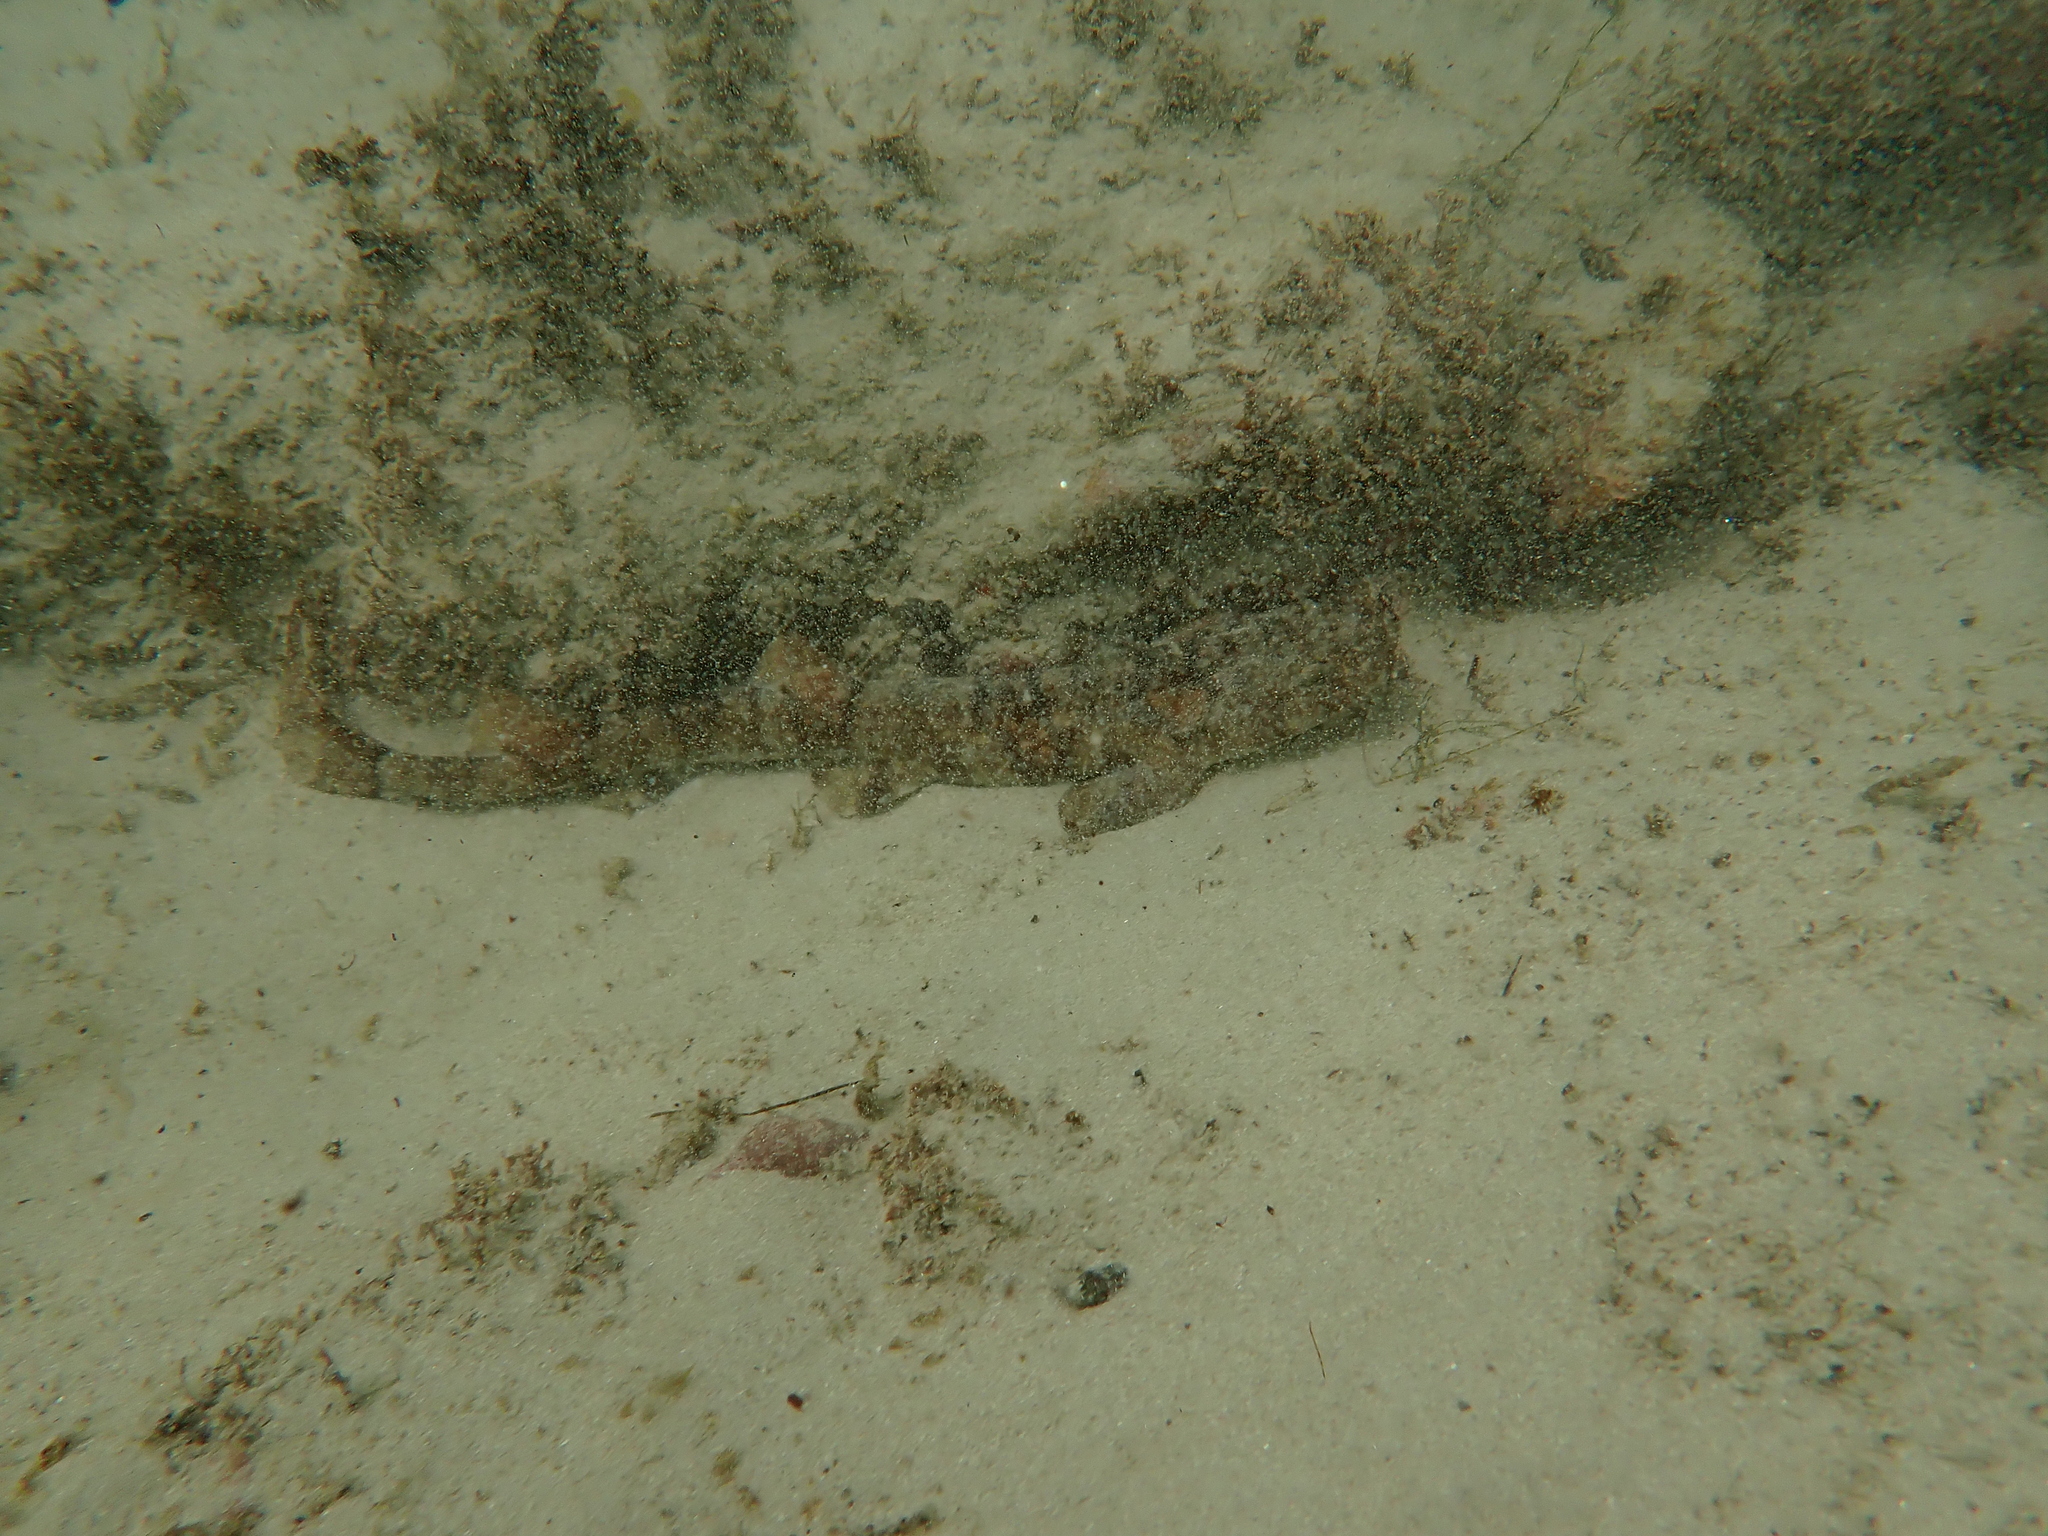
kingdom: Animalia
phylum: Chordata
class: Elasmobranchii
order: Carcharhiniformes
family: Scyliorhinidae
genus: Haploblepharus
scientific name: Haploblepharus edwardsii
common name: Puffadder shyshark
